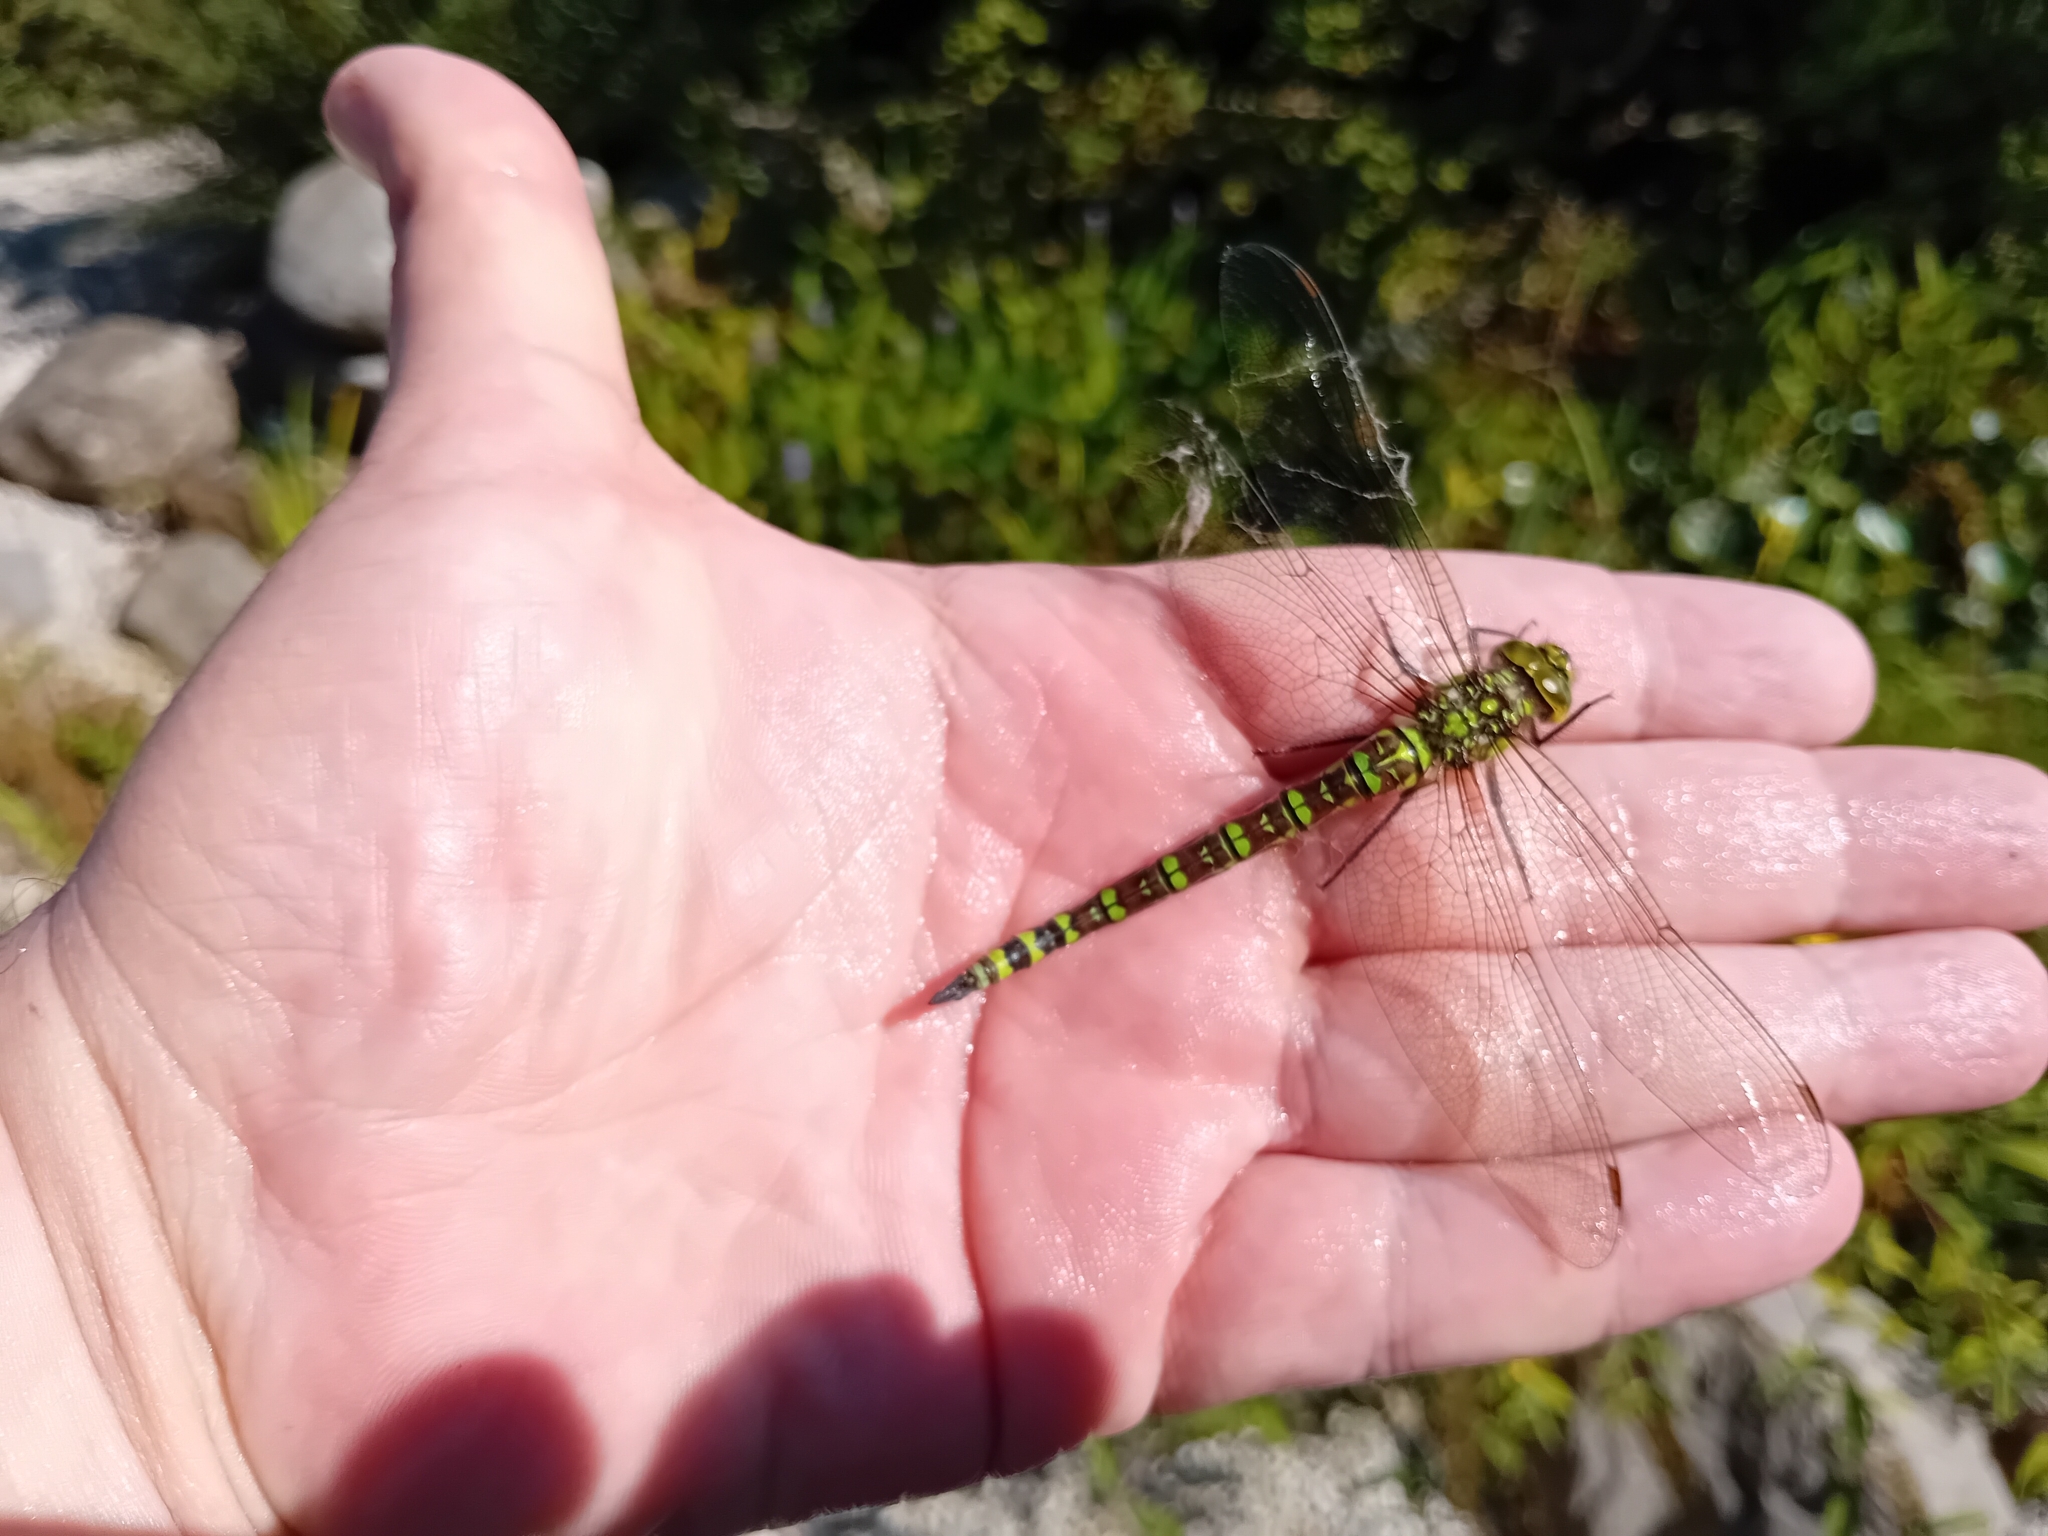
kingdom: Animalia
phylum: Arthropoda
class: Insecta
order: Odonata
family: Aeshnidae
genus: Aeshna
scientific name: Aeshna cyanea
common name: Southern hawker
